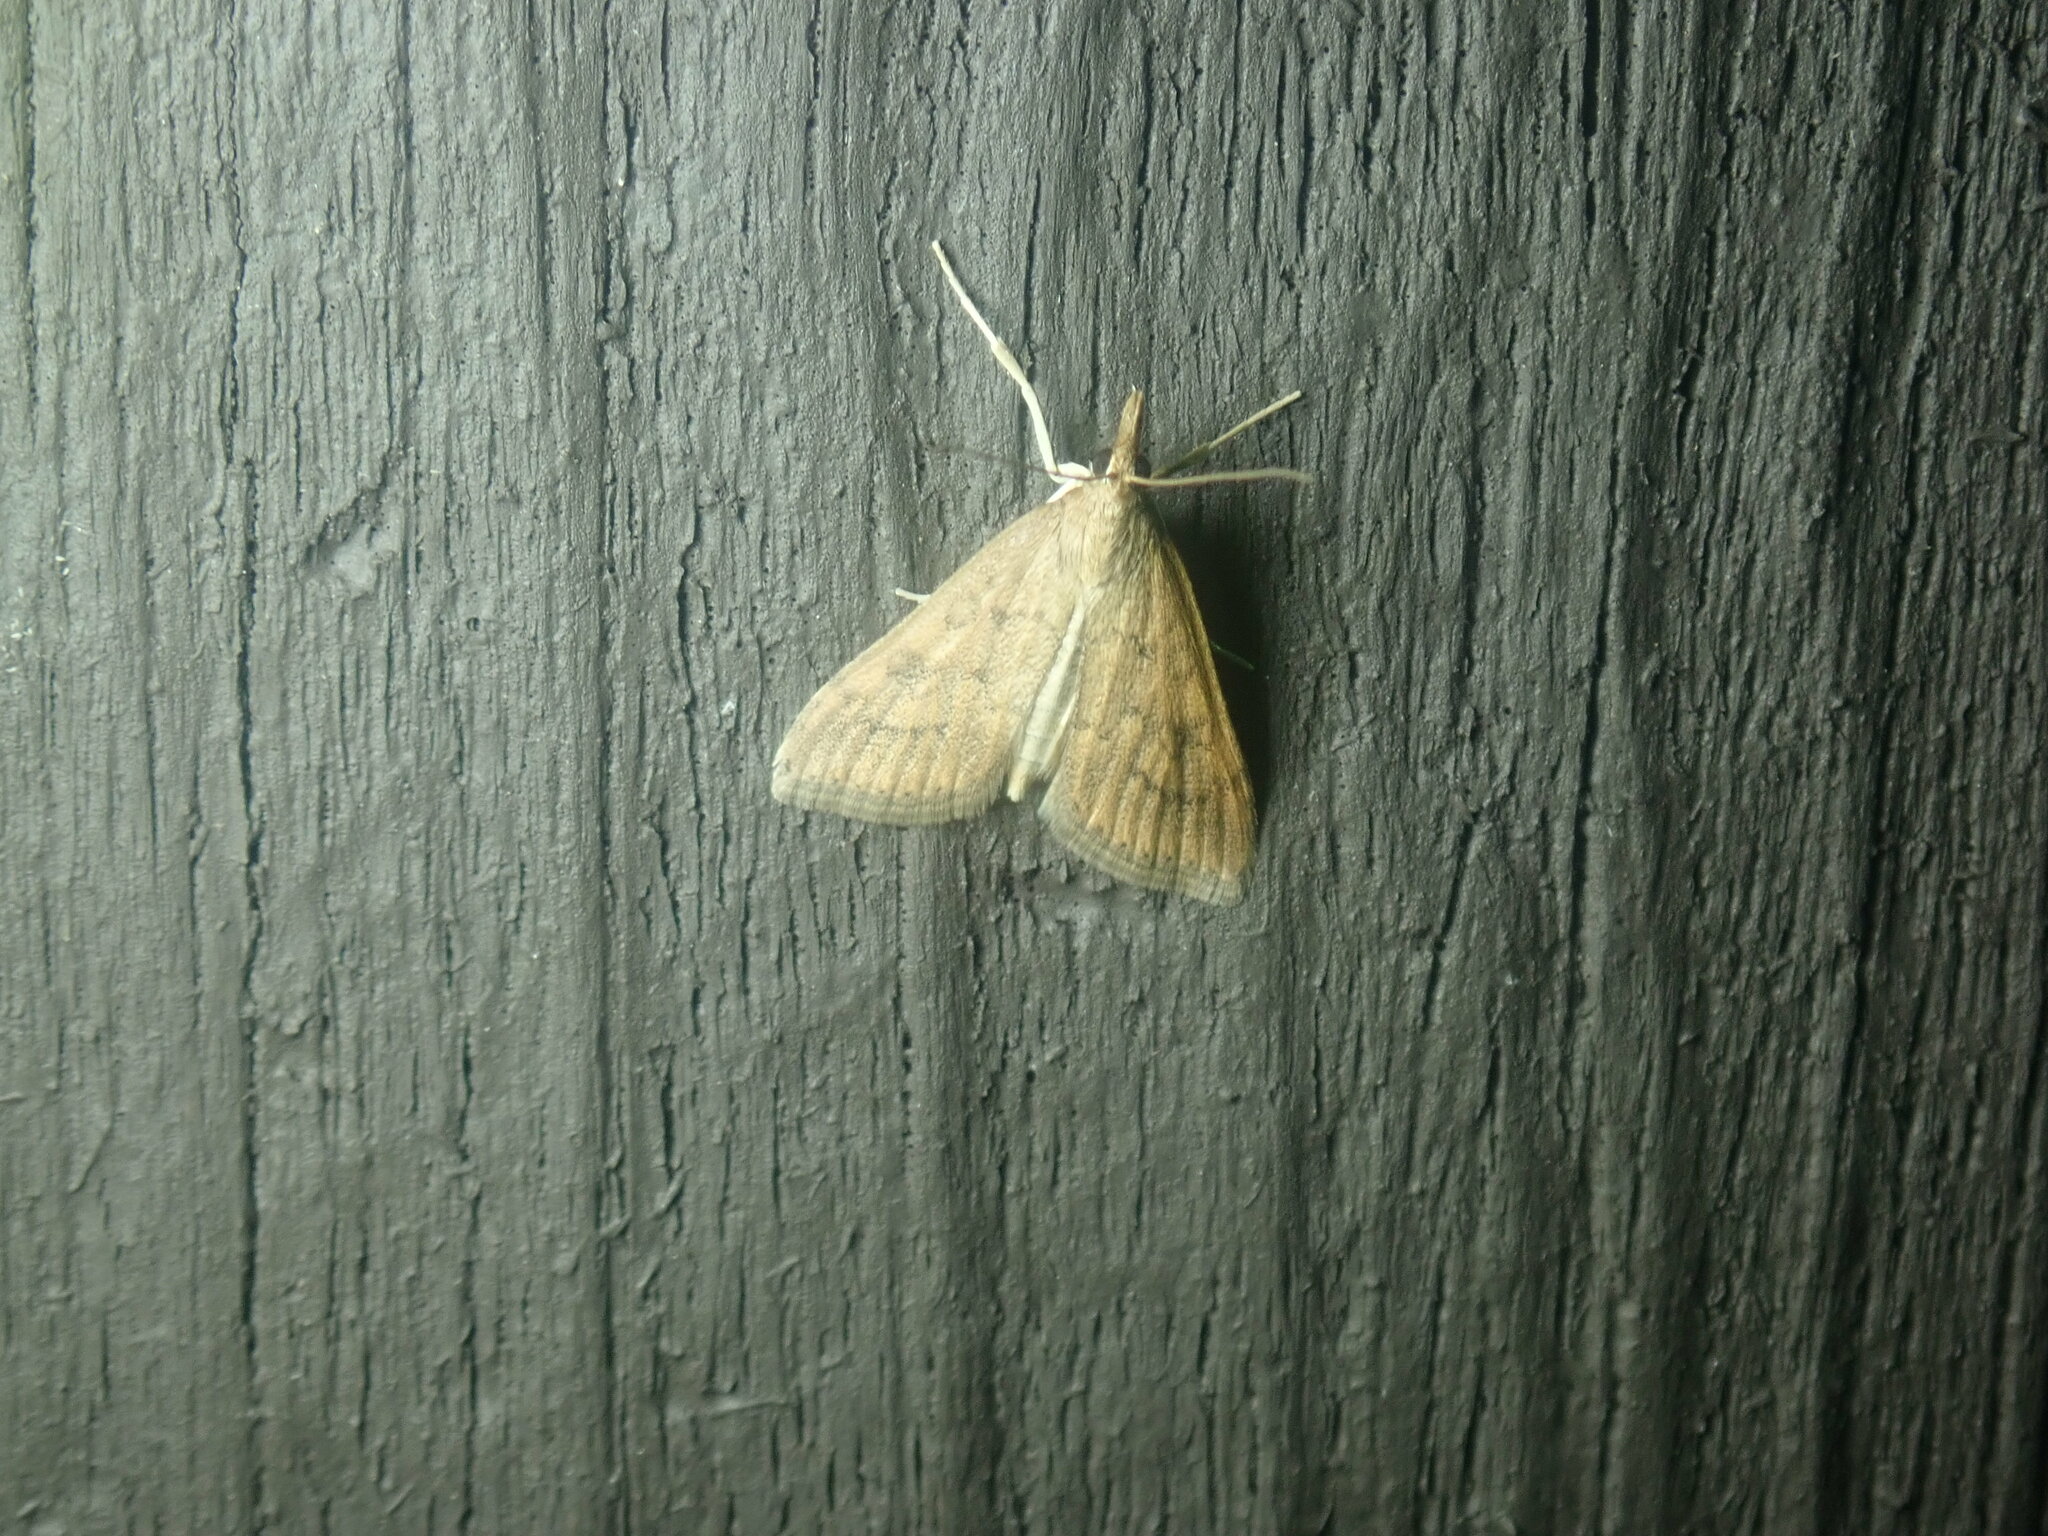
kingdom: Animalia
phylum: Arthropoda
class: Insecta
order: Lepidoptera
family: Crambidae
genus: Udea
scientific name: Udea rubigalis
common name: Celery leaftier moth
